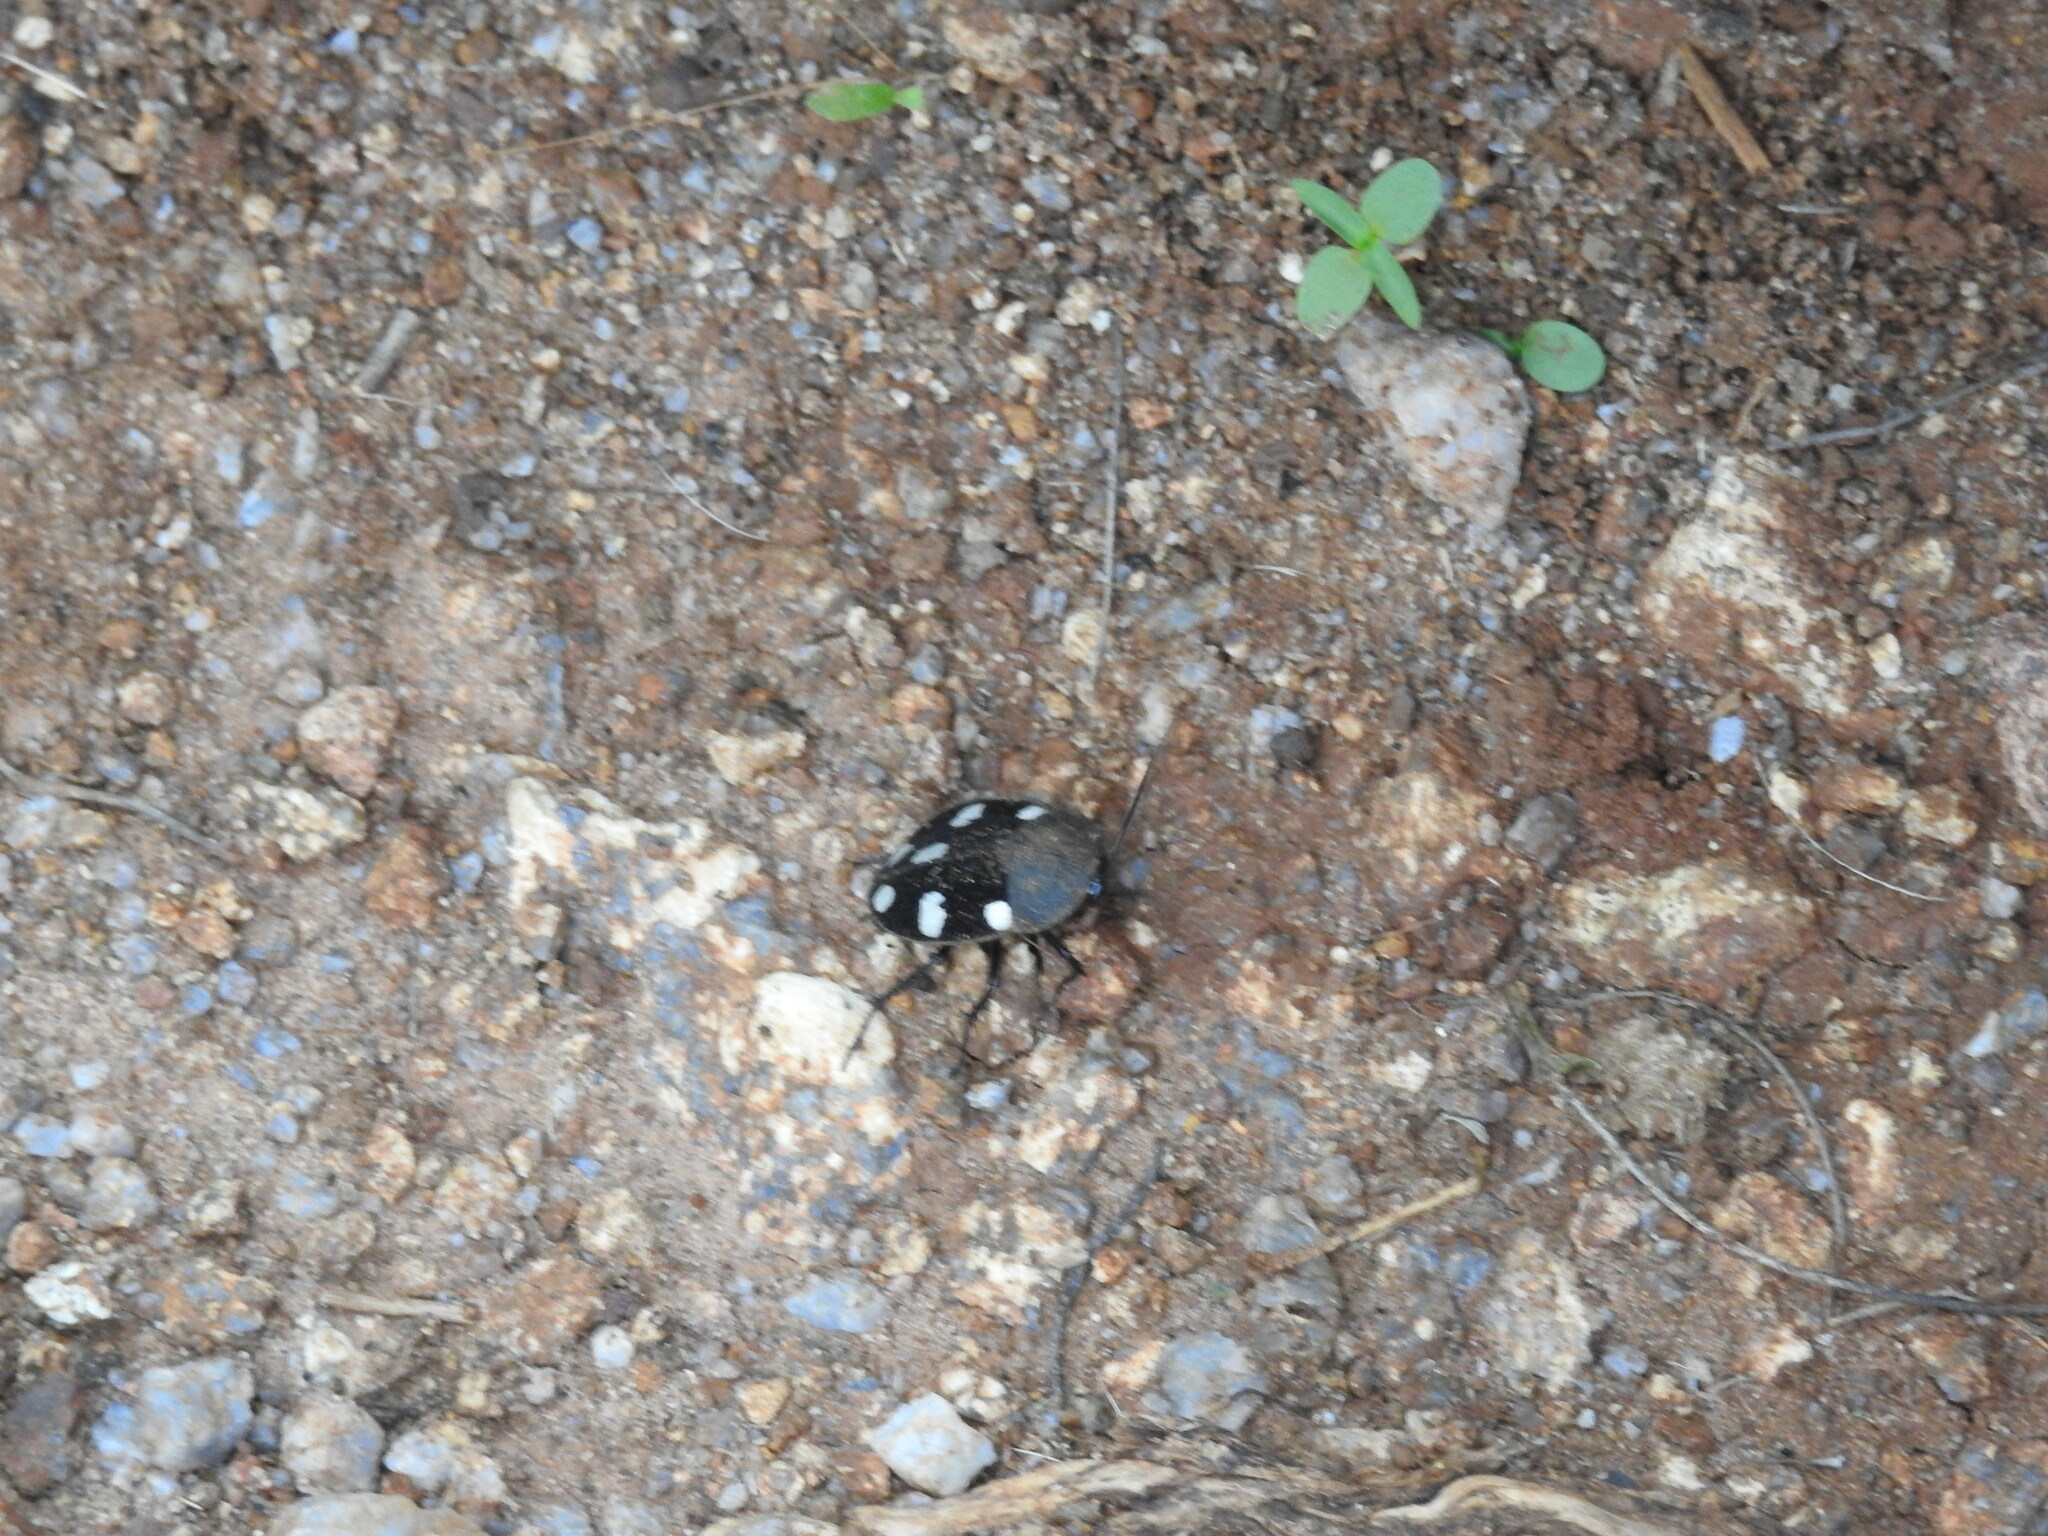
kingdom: Animalia
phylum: Arthropoda
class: Insecta
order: Blattodea
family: Corydiidae
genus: Therea
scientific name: Therea petiveriana
